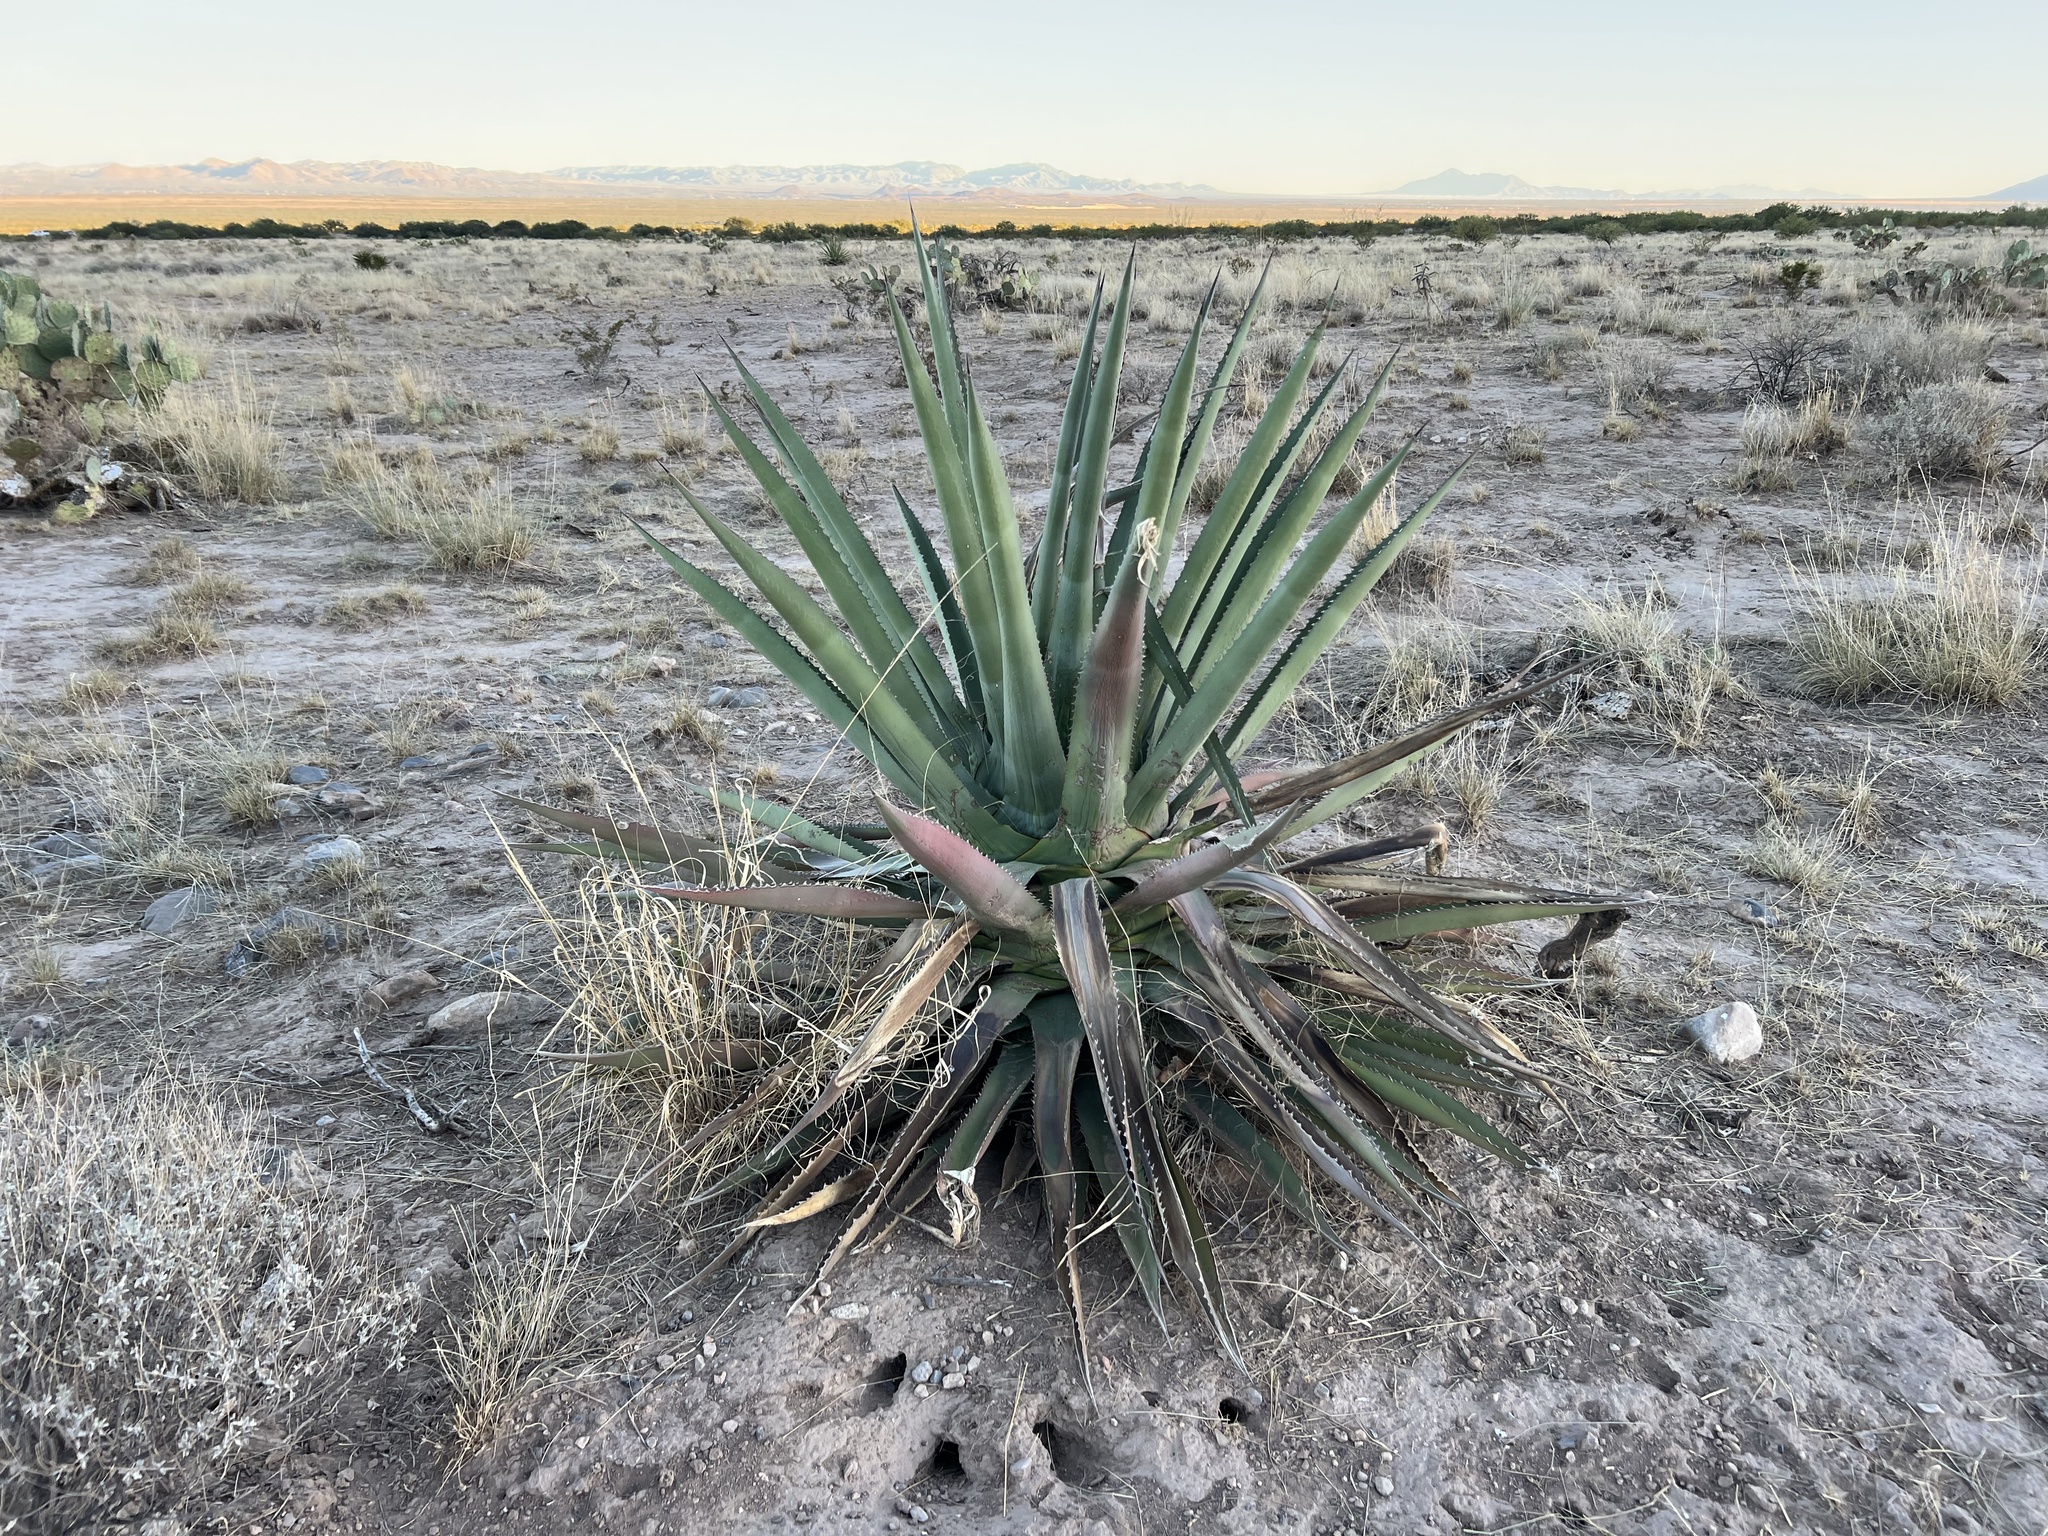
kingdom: Plantae
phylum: Tracheophyta
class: Liliopsida
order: Asparagales
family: Asparagaceae
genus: Agave
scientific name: Agave palmeri
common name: Palmer agave
